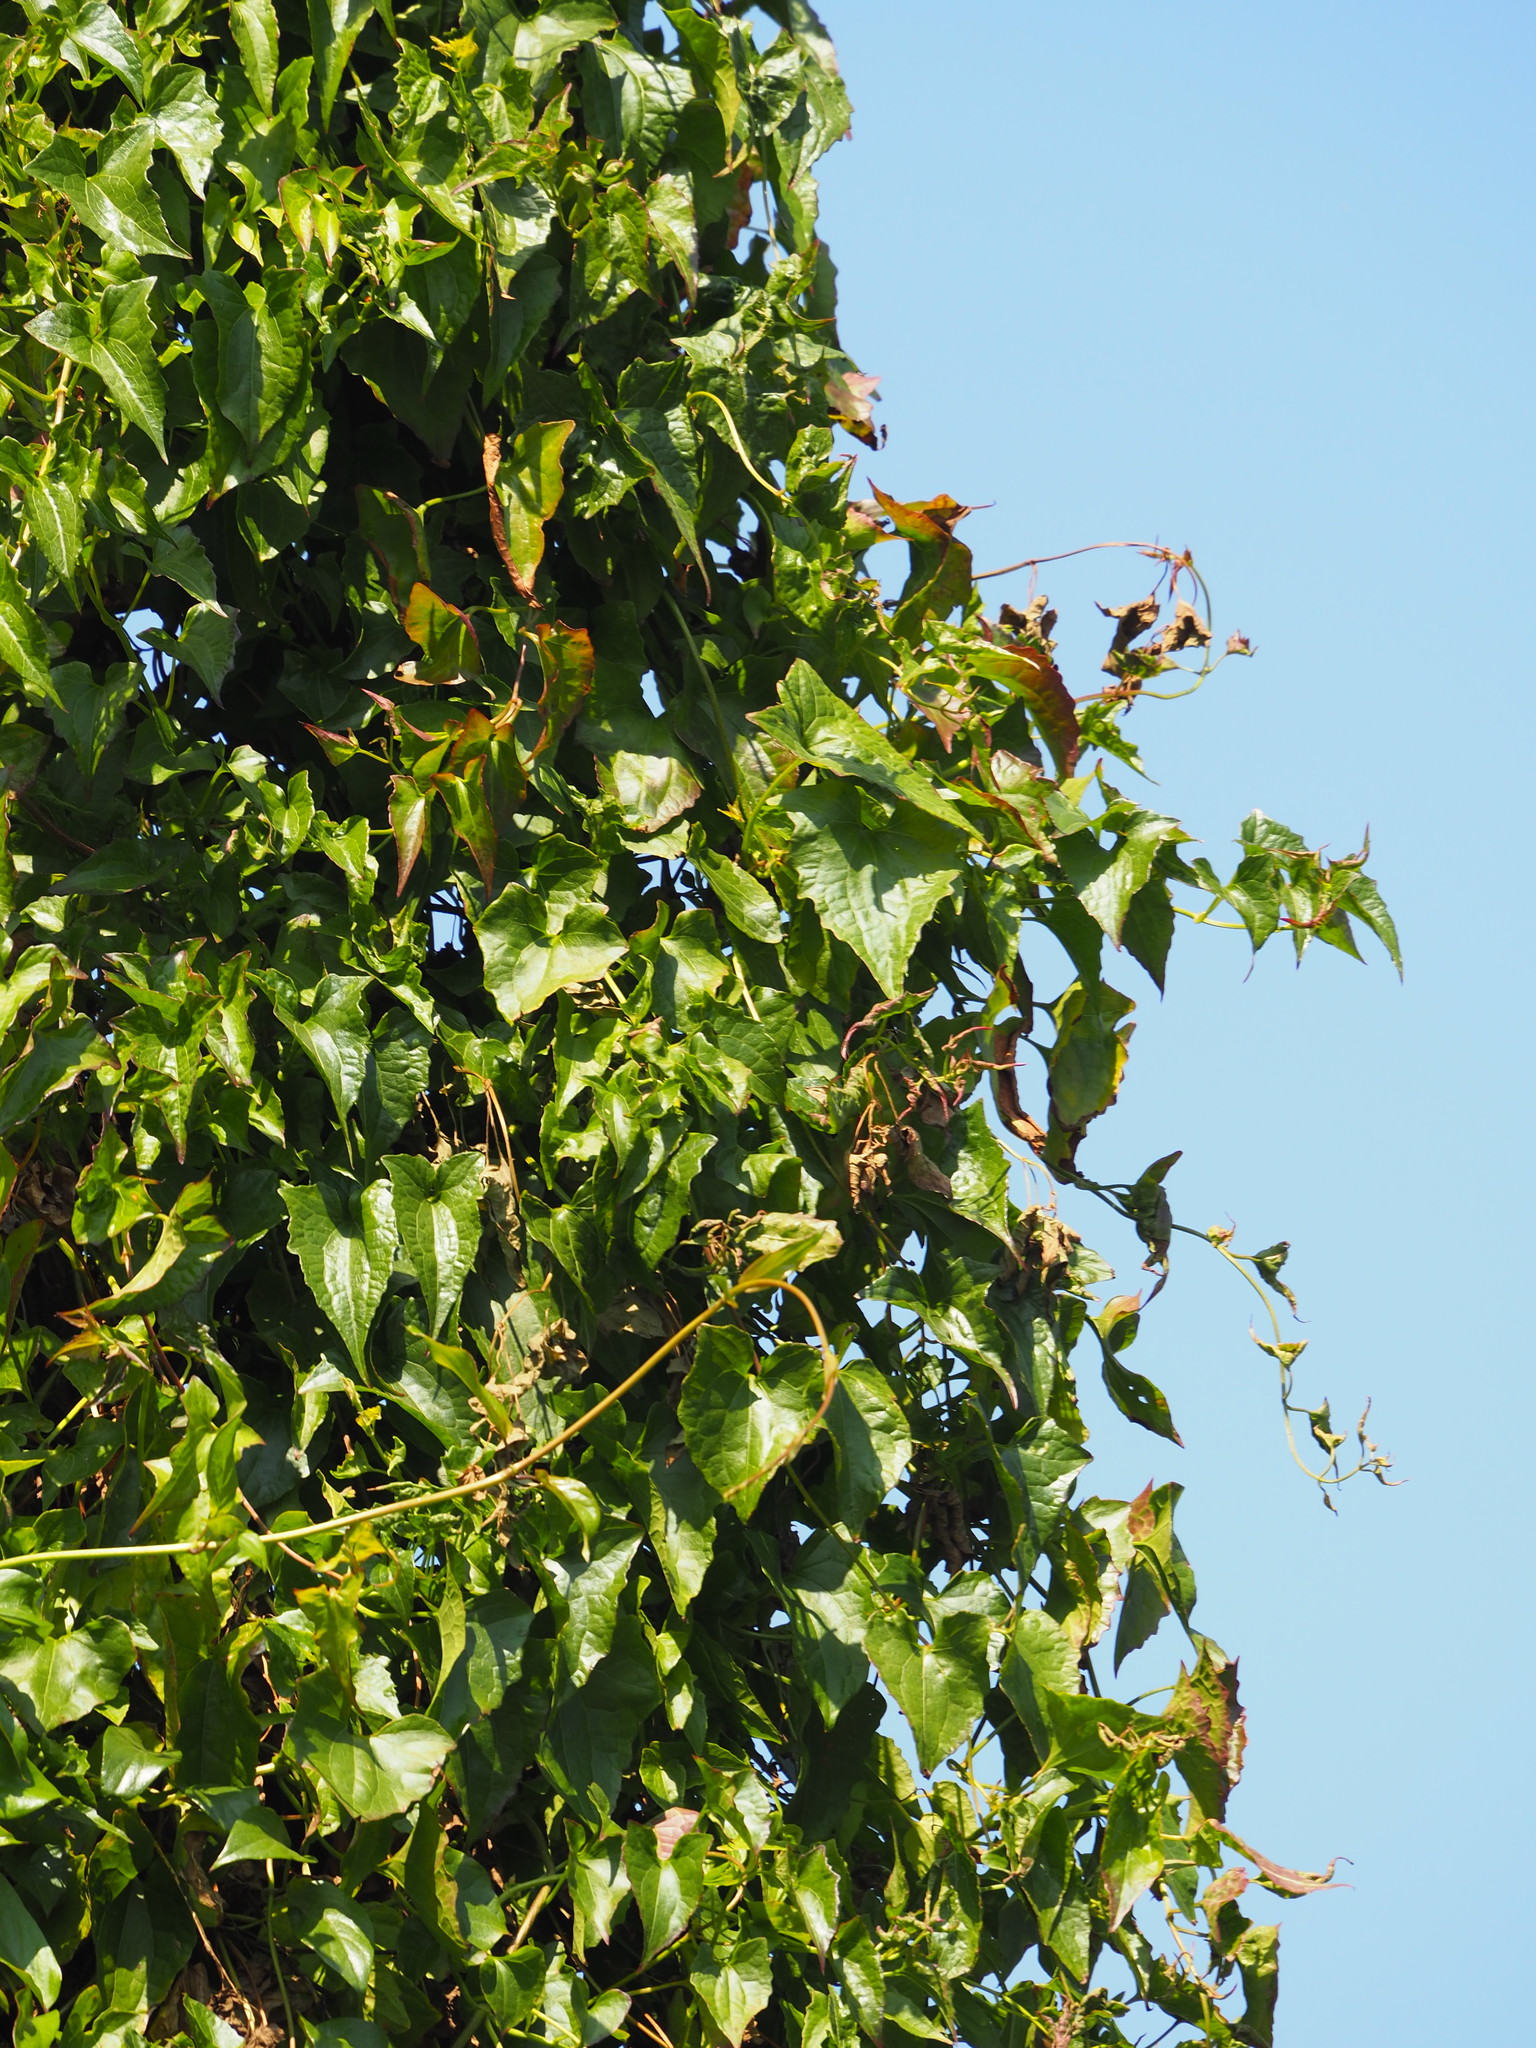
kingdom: Plantae
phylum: Tracheophyta
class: Magnoliopsida
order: Asterales
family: Asteraceae
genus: Mikania
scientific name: Mikania micrantha
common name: Mile-a-minute
